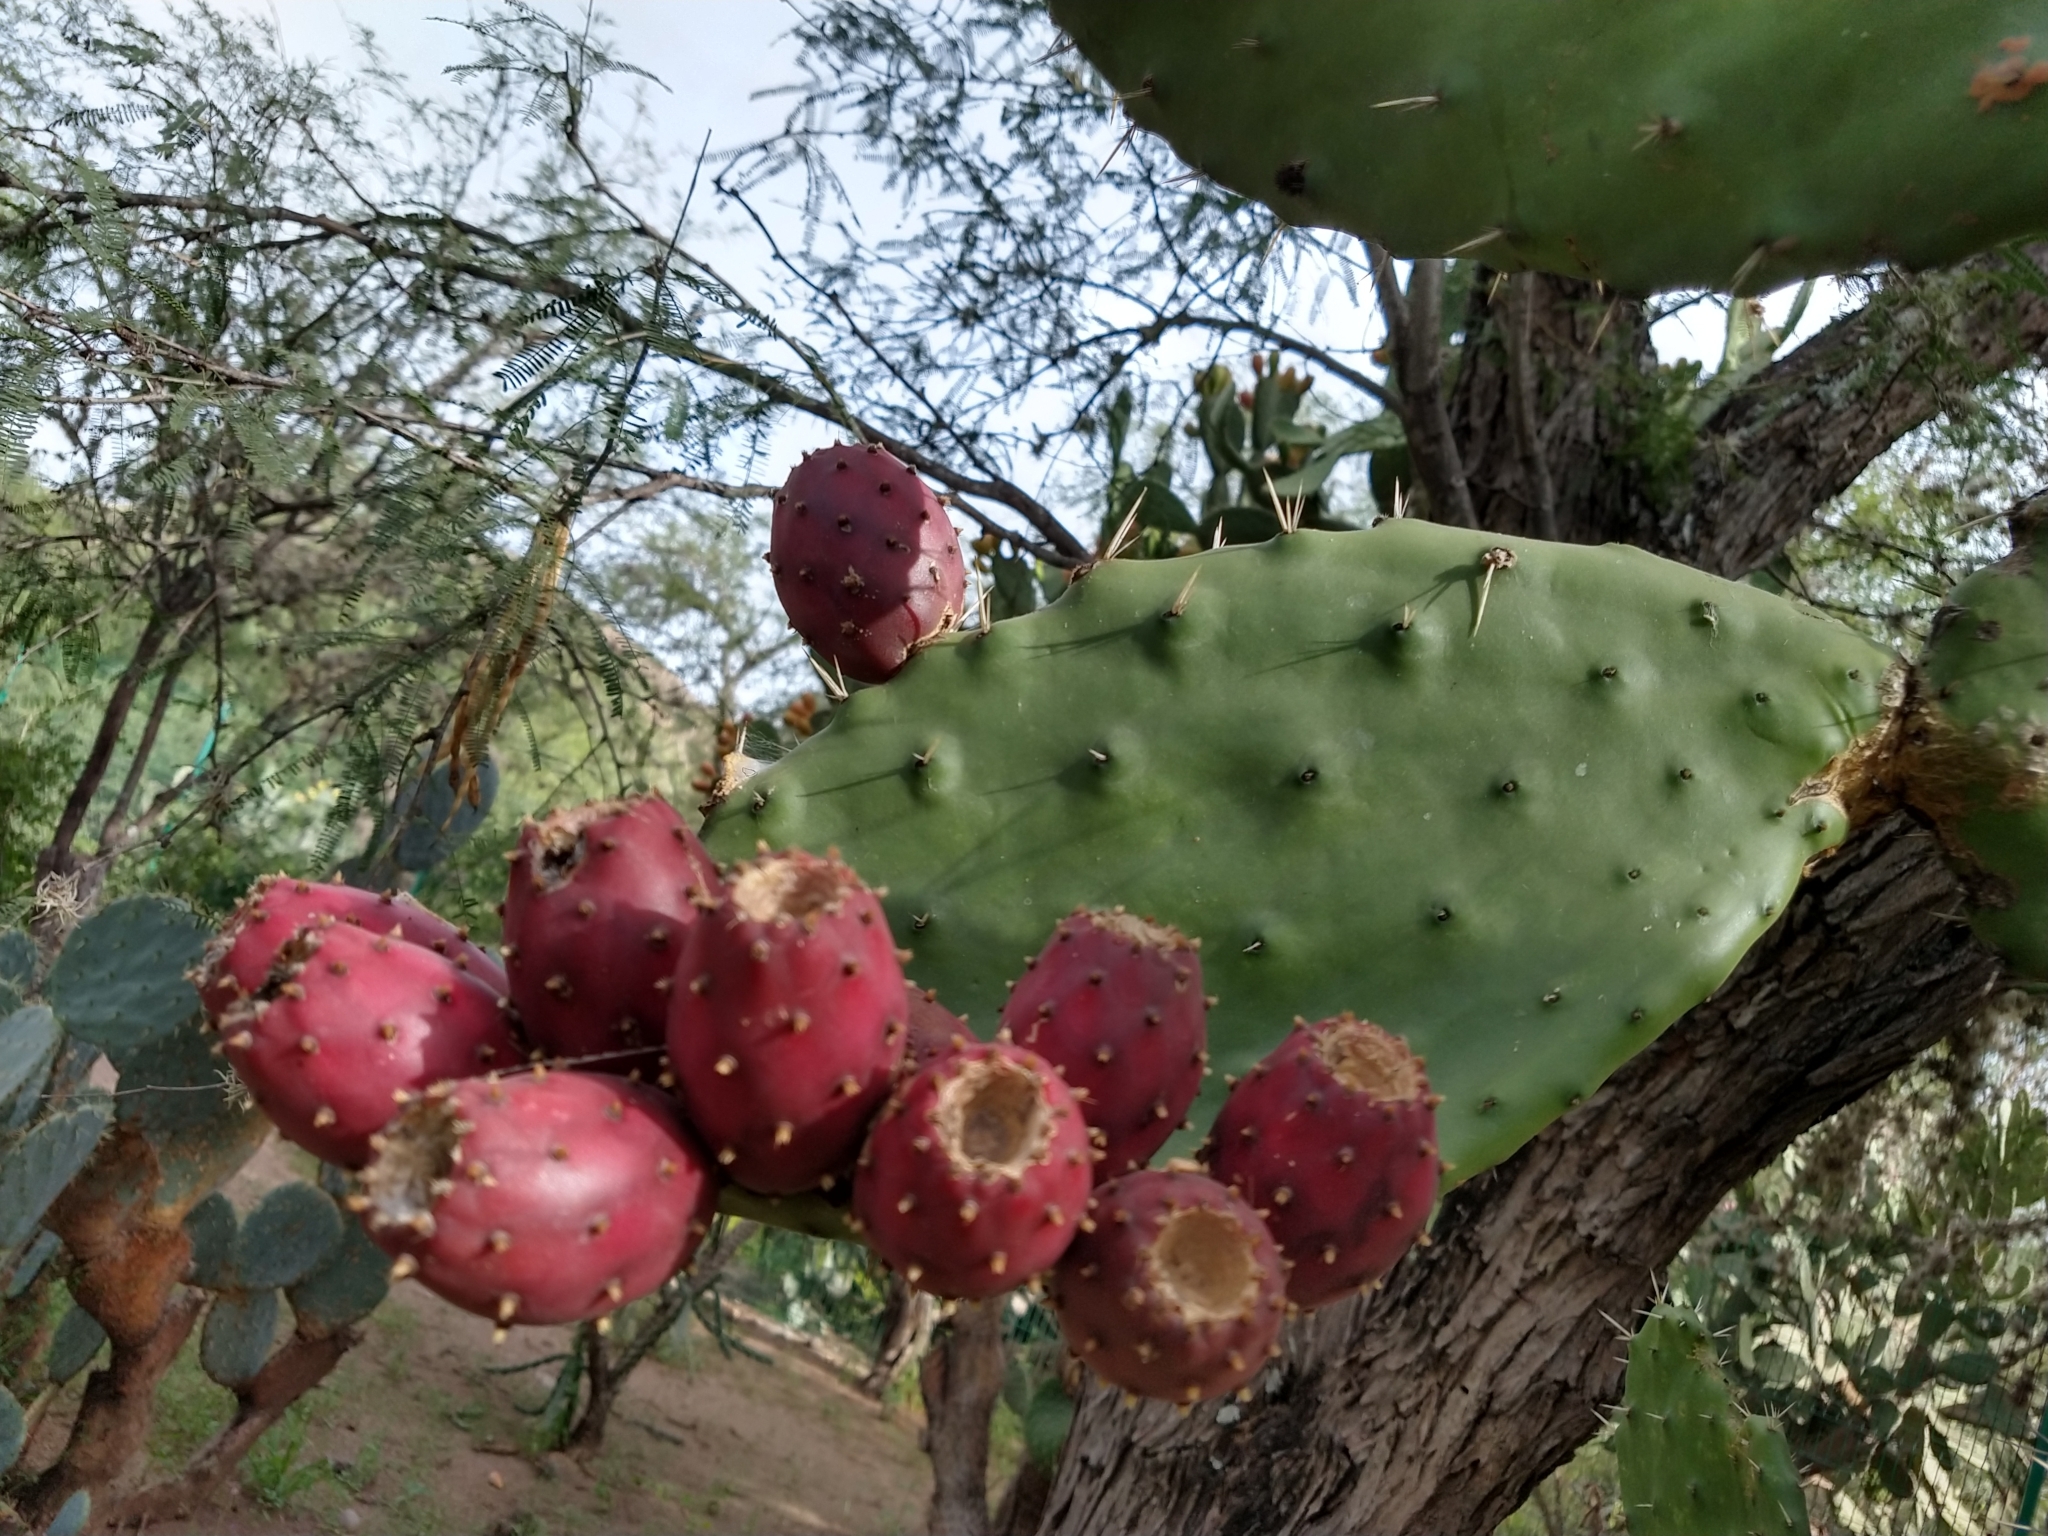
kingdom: Plantae
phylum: Tracheophyta
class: Magnoliopsida
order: Caryophyllales
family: Cactaceae
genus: Opuntia
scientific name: Opuntia tomentosa
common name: Woollyjoint pricklypear
